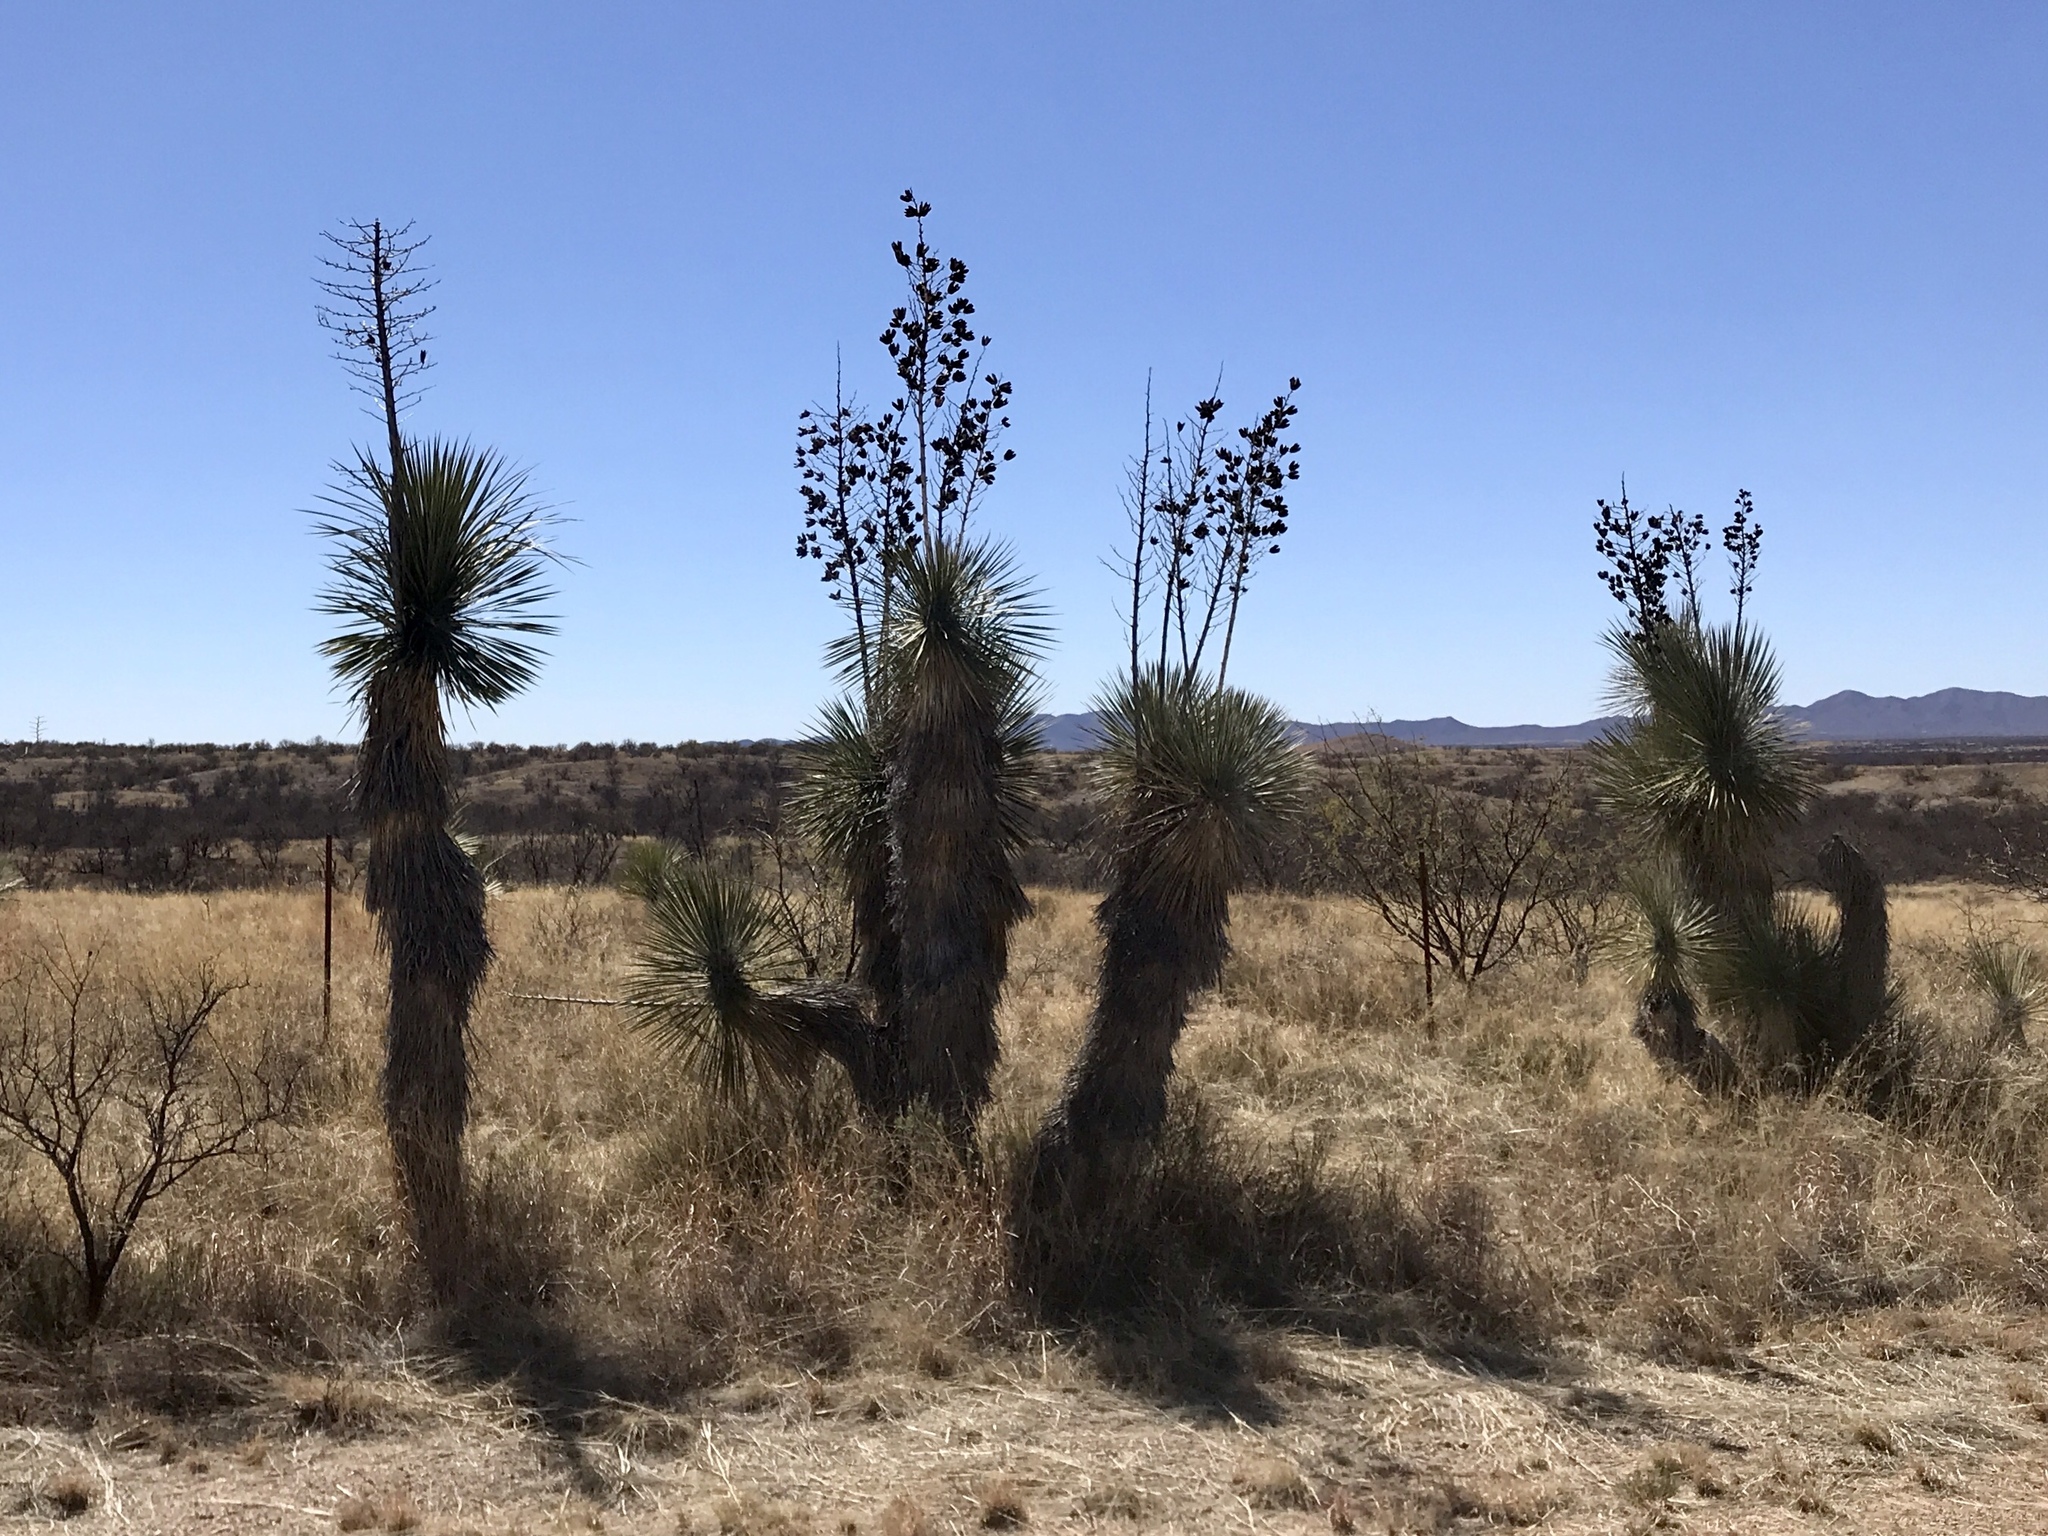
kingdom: Plantae
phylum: Tracheophyta
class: Liliopsida
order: Asparagales
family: Asparagaceae
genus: Yucca
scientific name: Yucca elata
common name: Palmella
